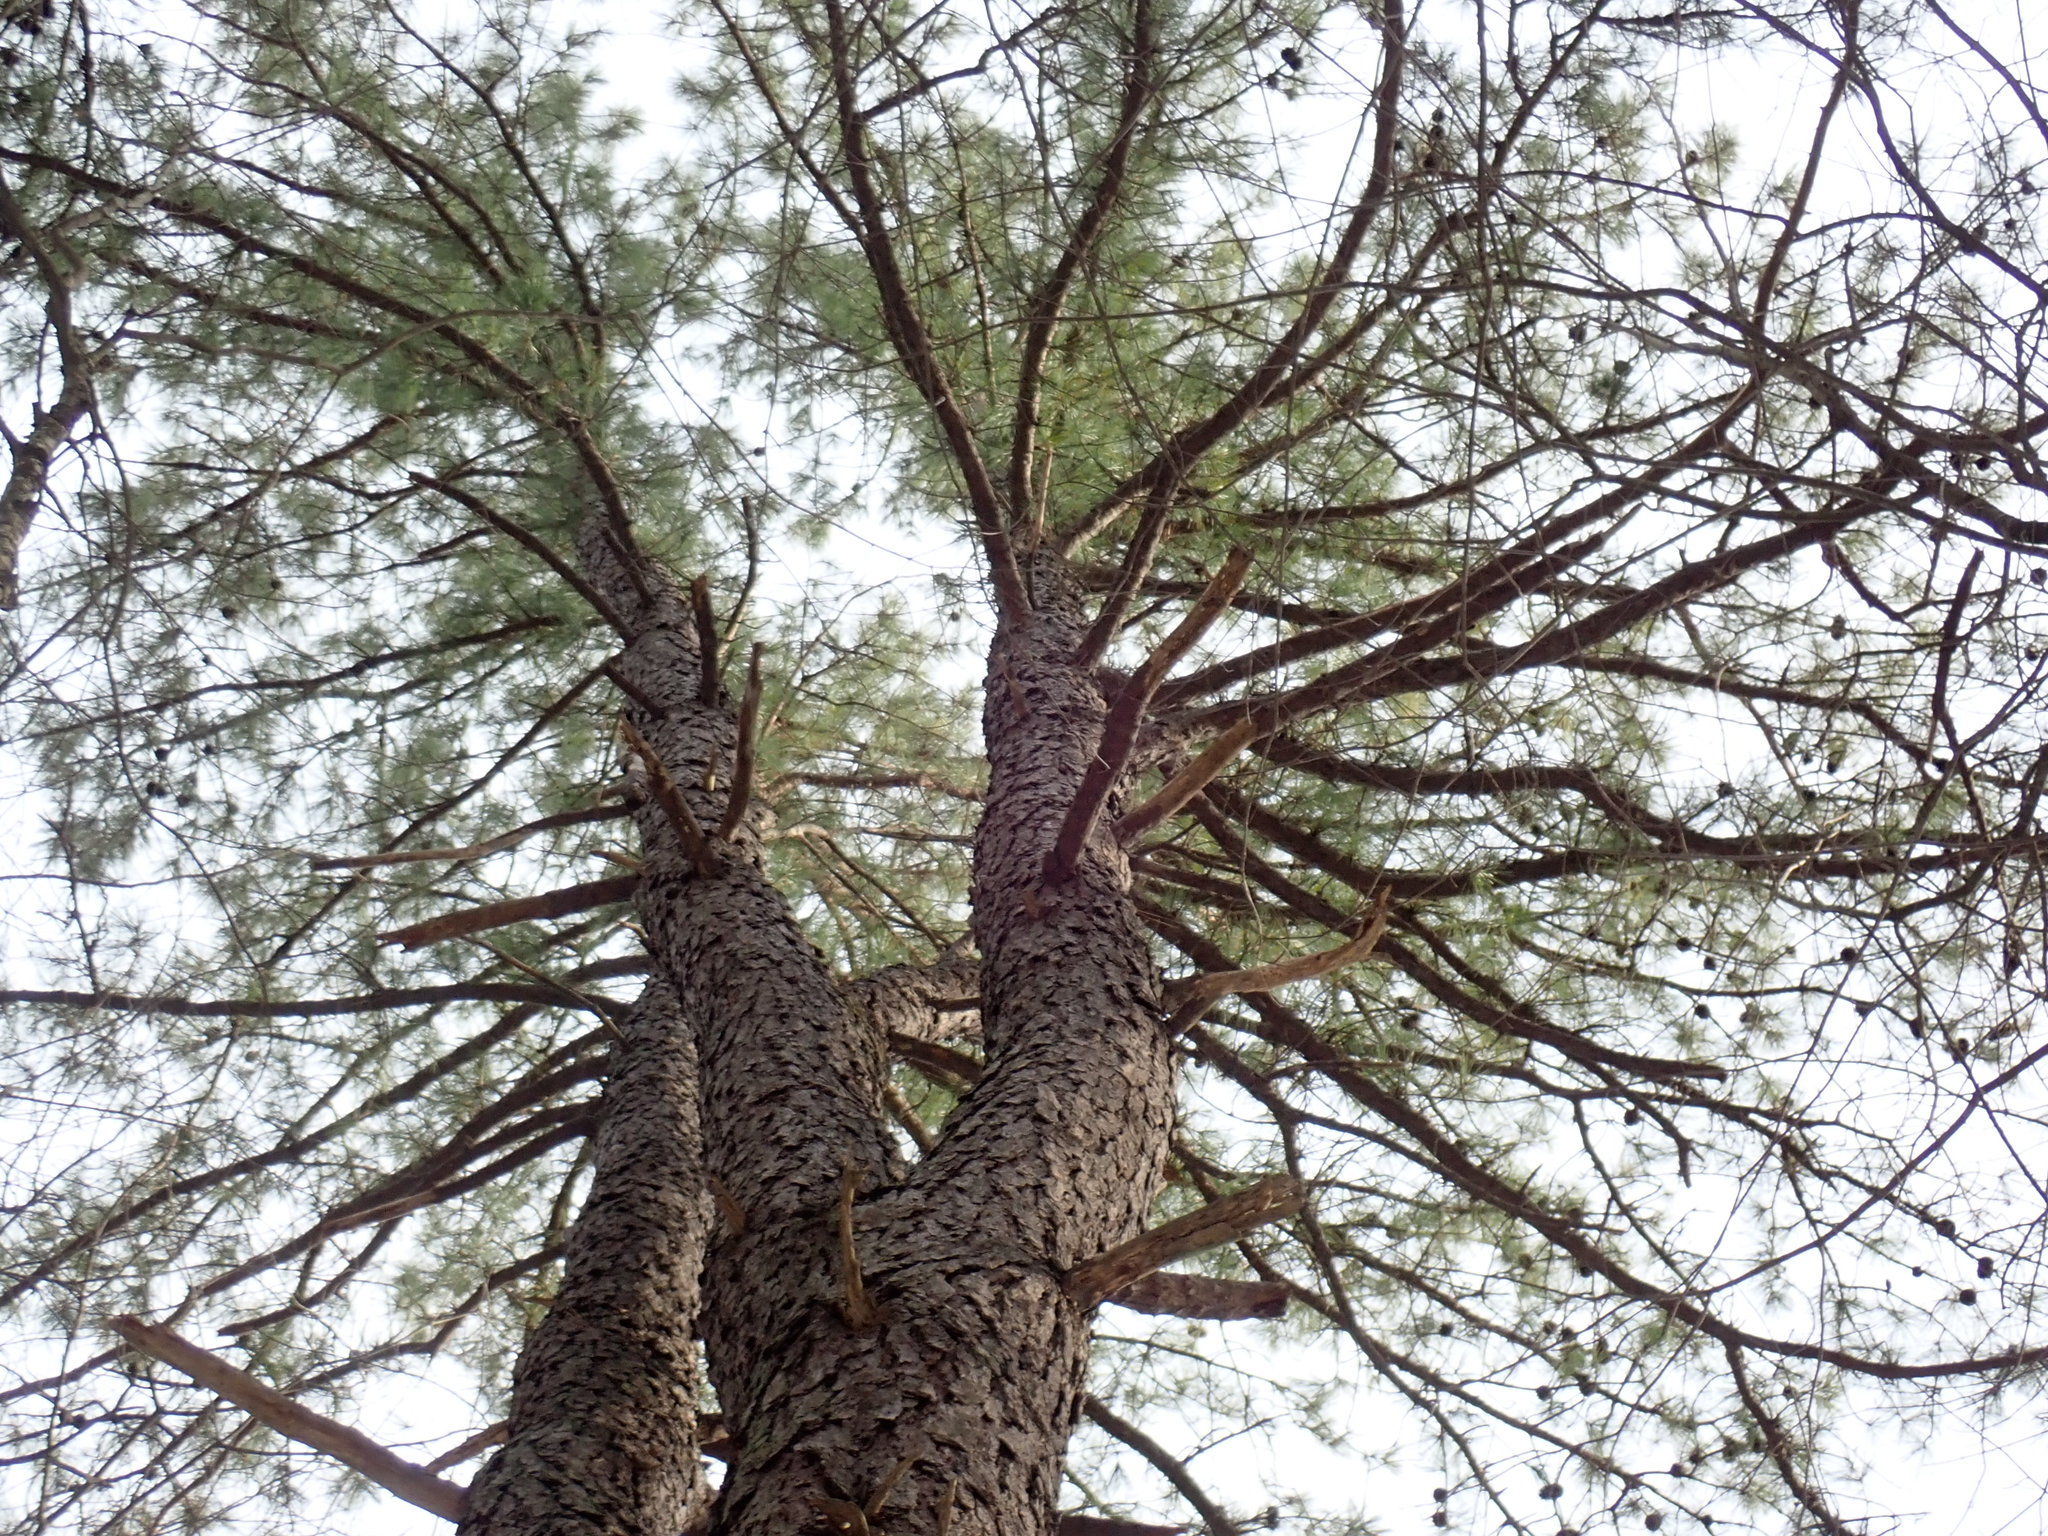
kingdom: Plantae
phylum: Tracheophyta
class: Pinopsida
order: Pinales
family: Pinaceae
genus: Pinus
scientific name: Pinus rigida
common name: Pitch pine
